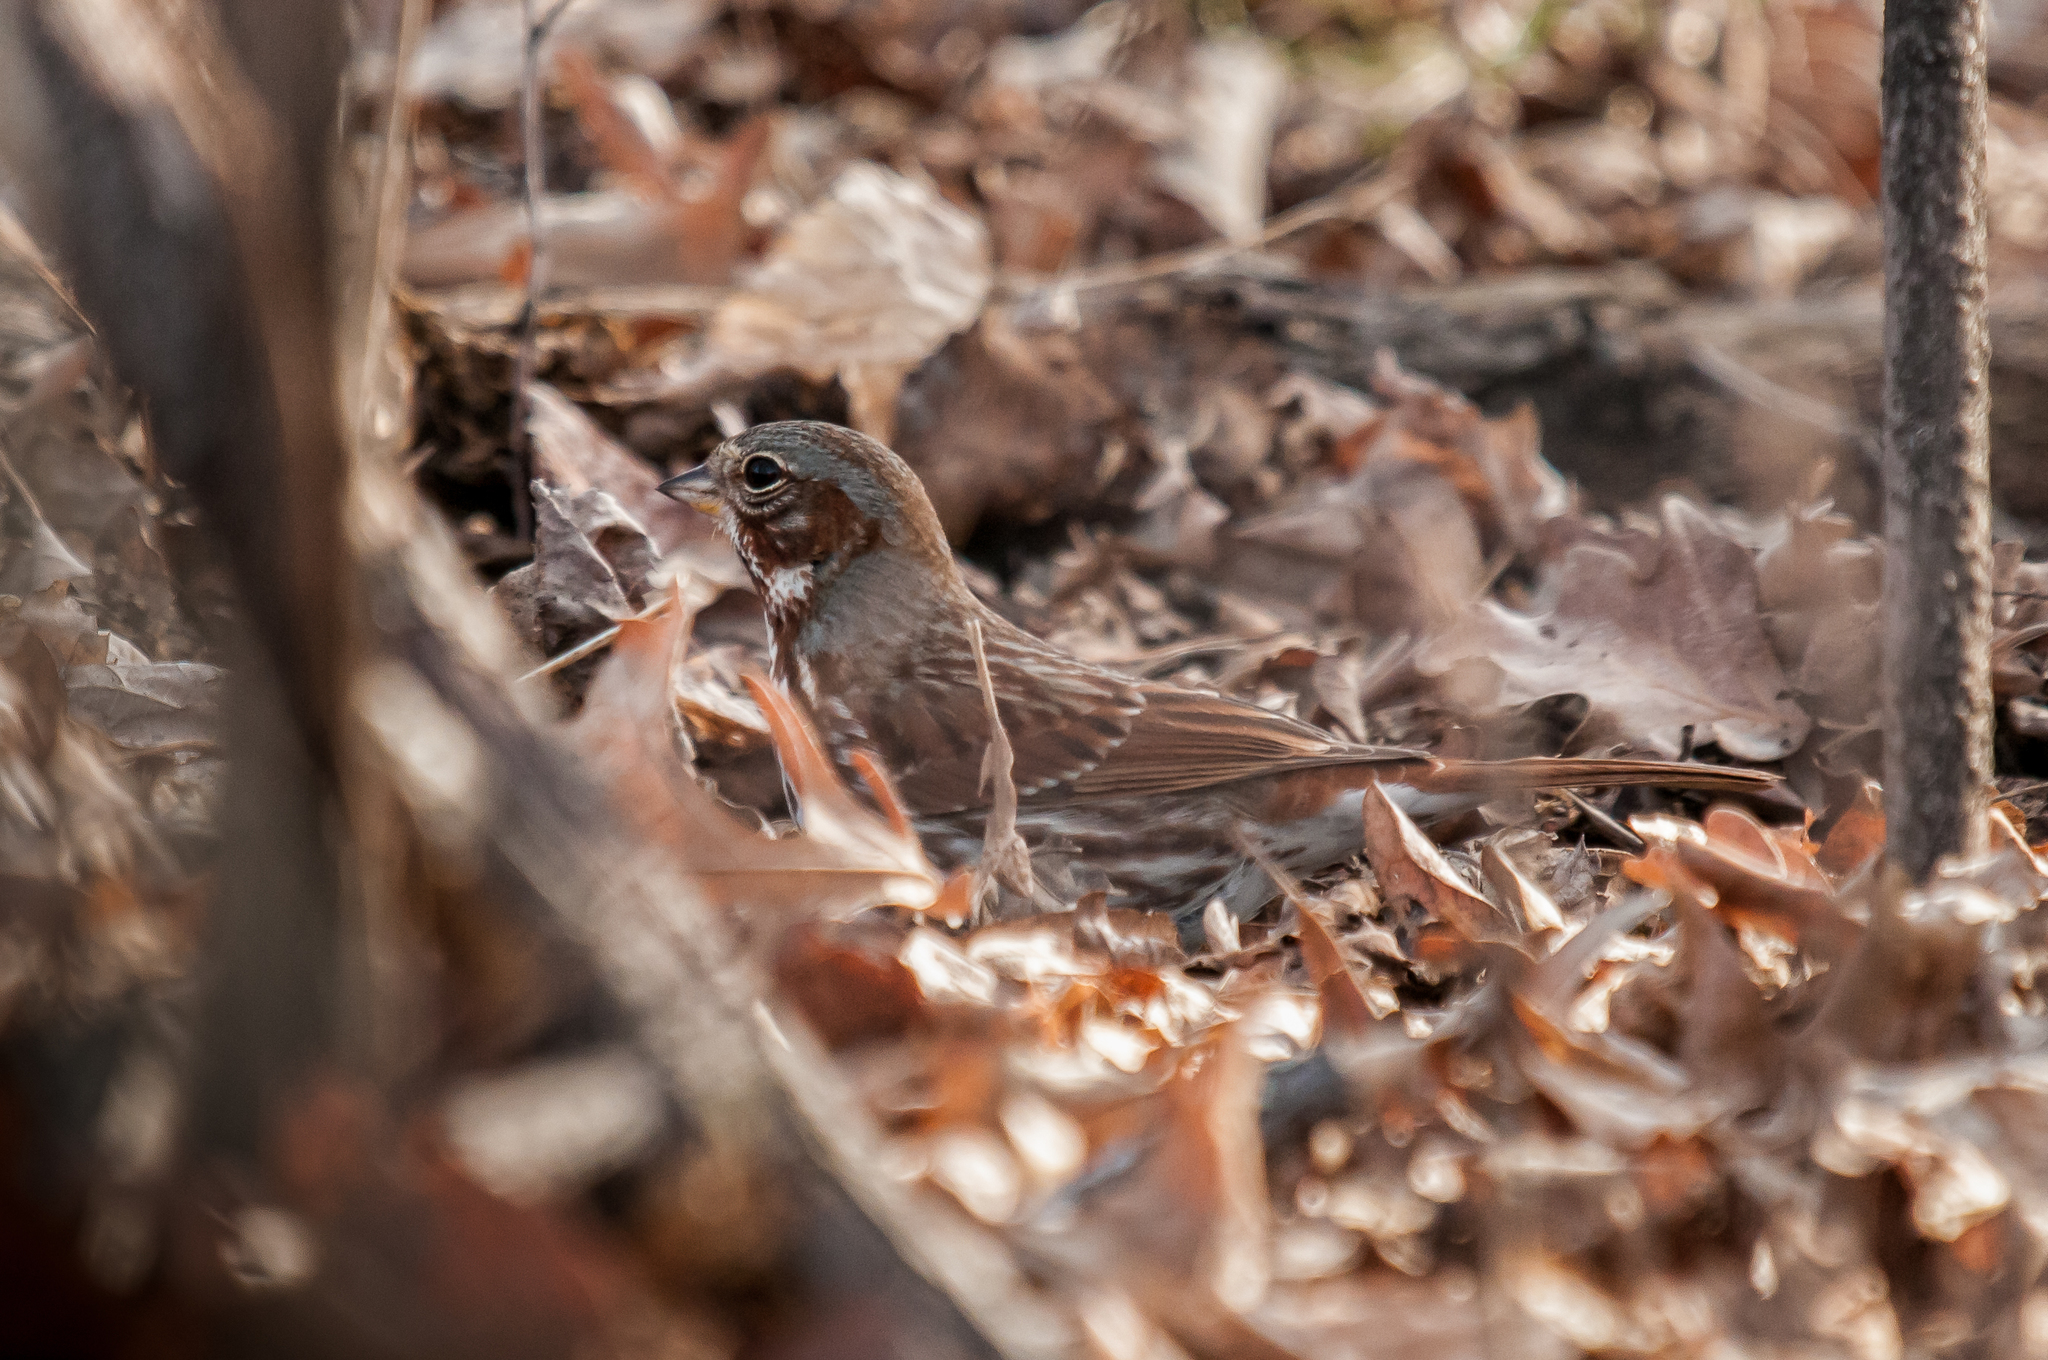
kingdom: Animalia
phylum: Chordata
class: Aves
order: Passeriformes
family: Passerellidae
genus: Passerella
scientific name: Passerella iliaca
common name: Fox sparrow
